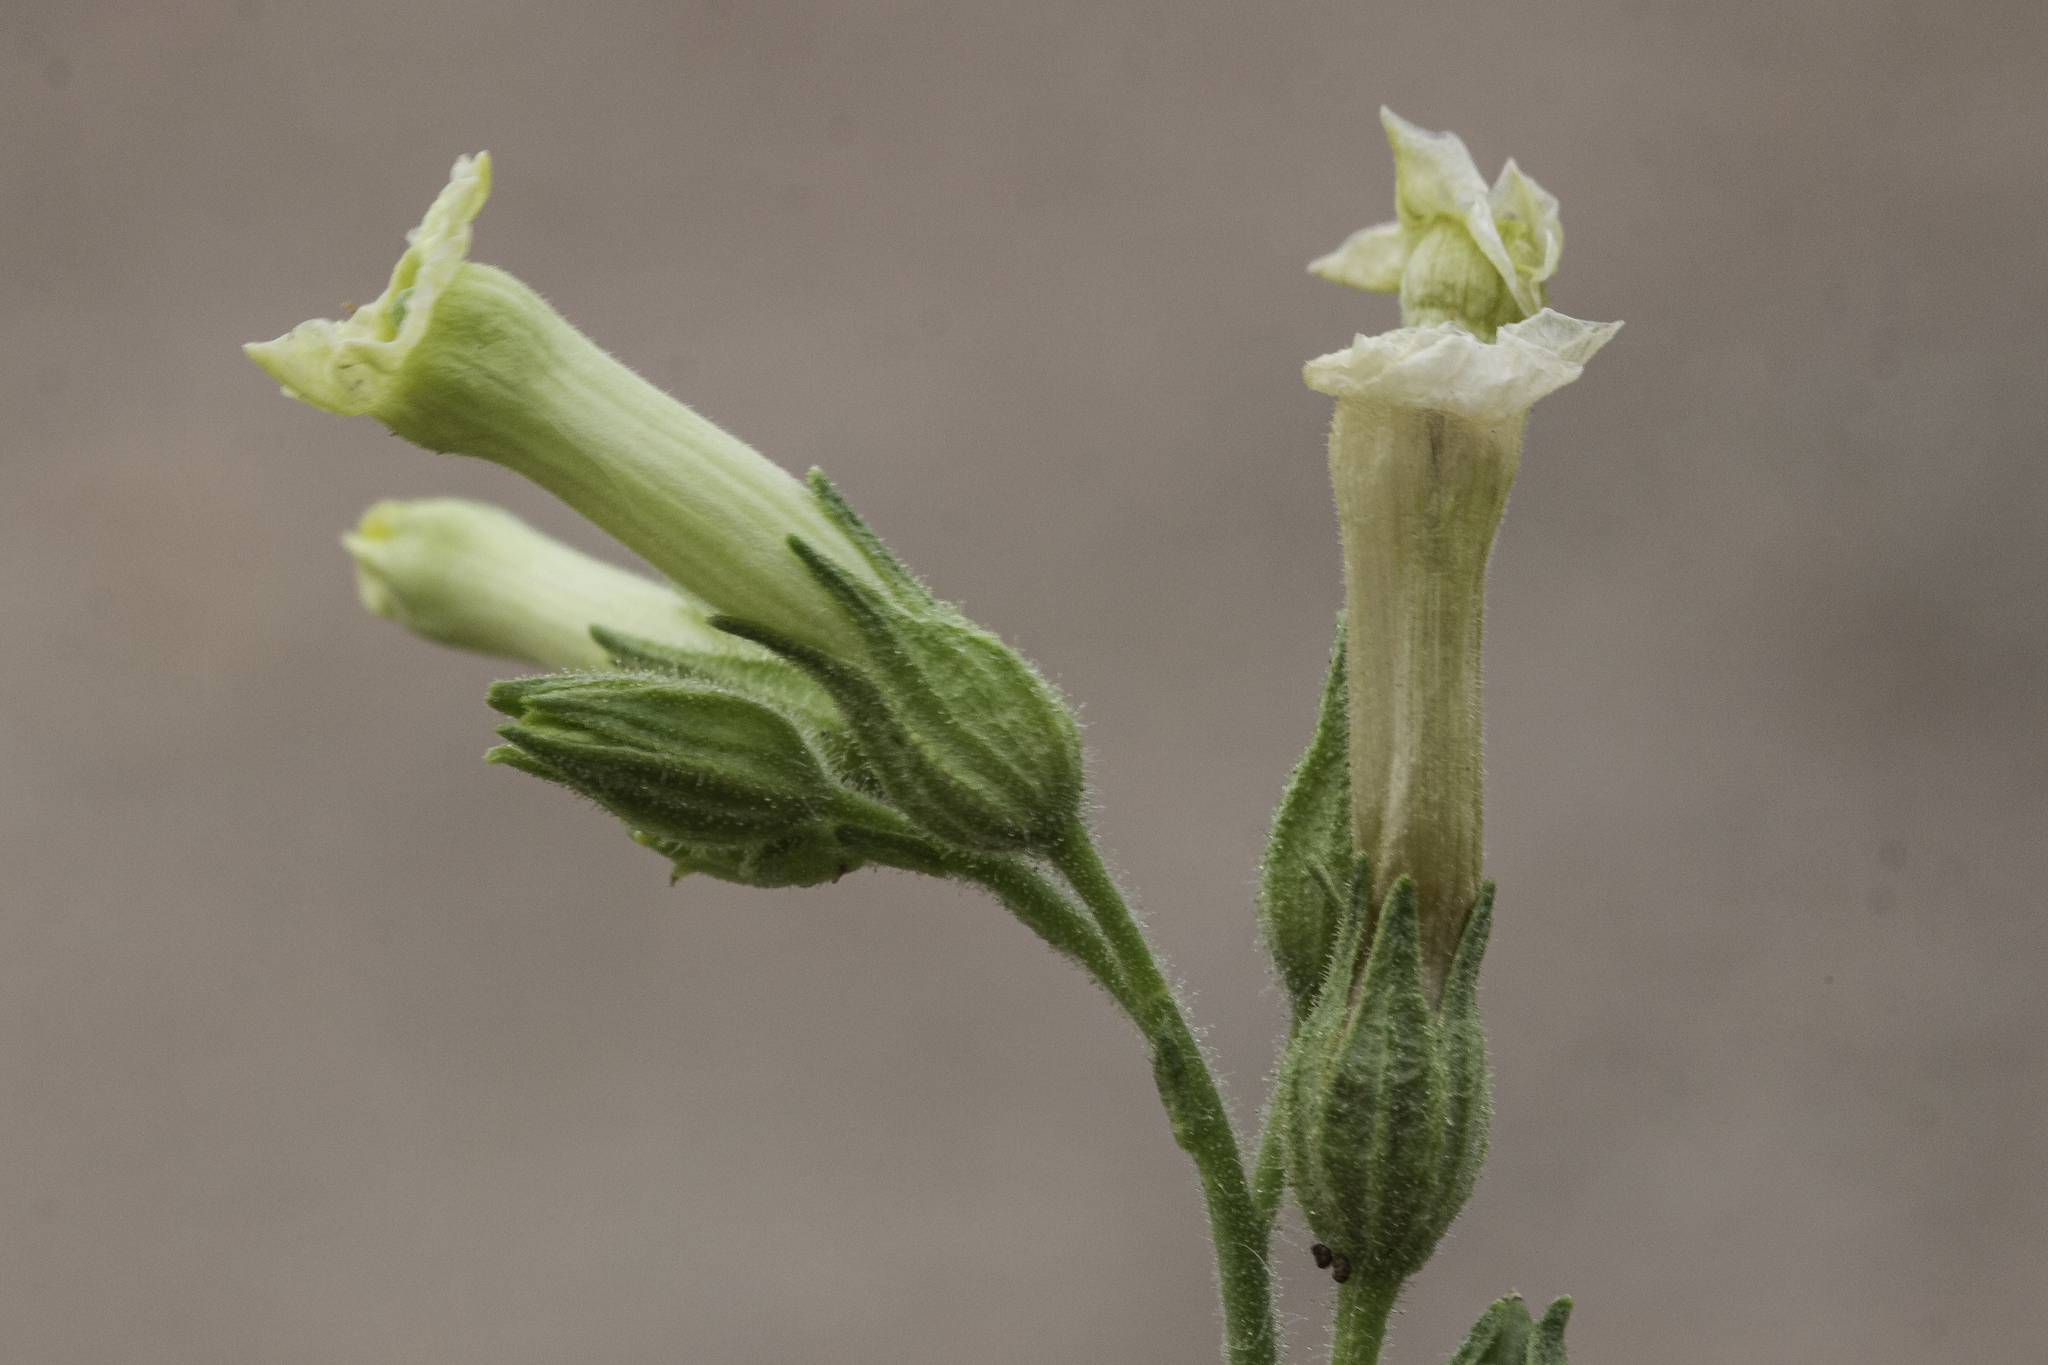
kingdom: Plantae
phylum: Tracheophyta
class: Magnoliopsida
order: Solanales
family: Solanaceae
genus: Nicotiana
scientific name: Nicotiana obtusifolia
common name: Desert tobacco
